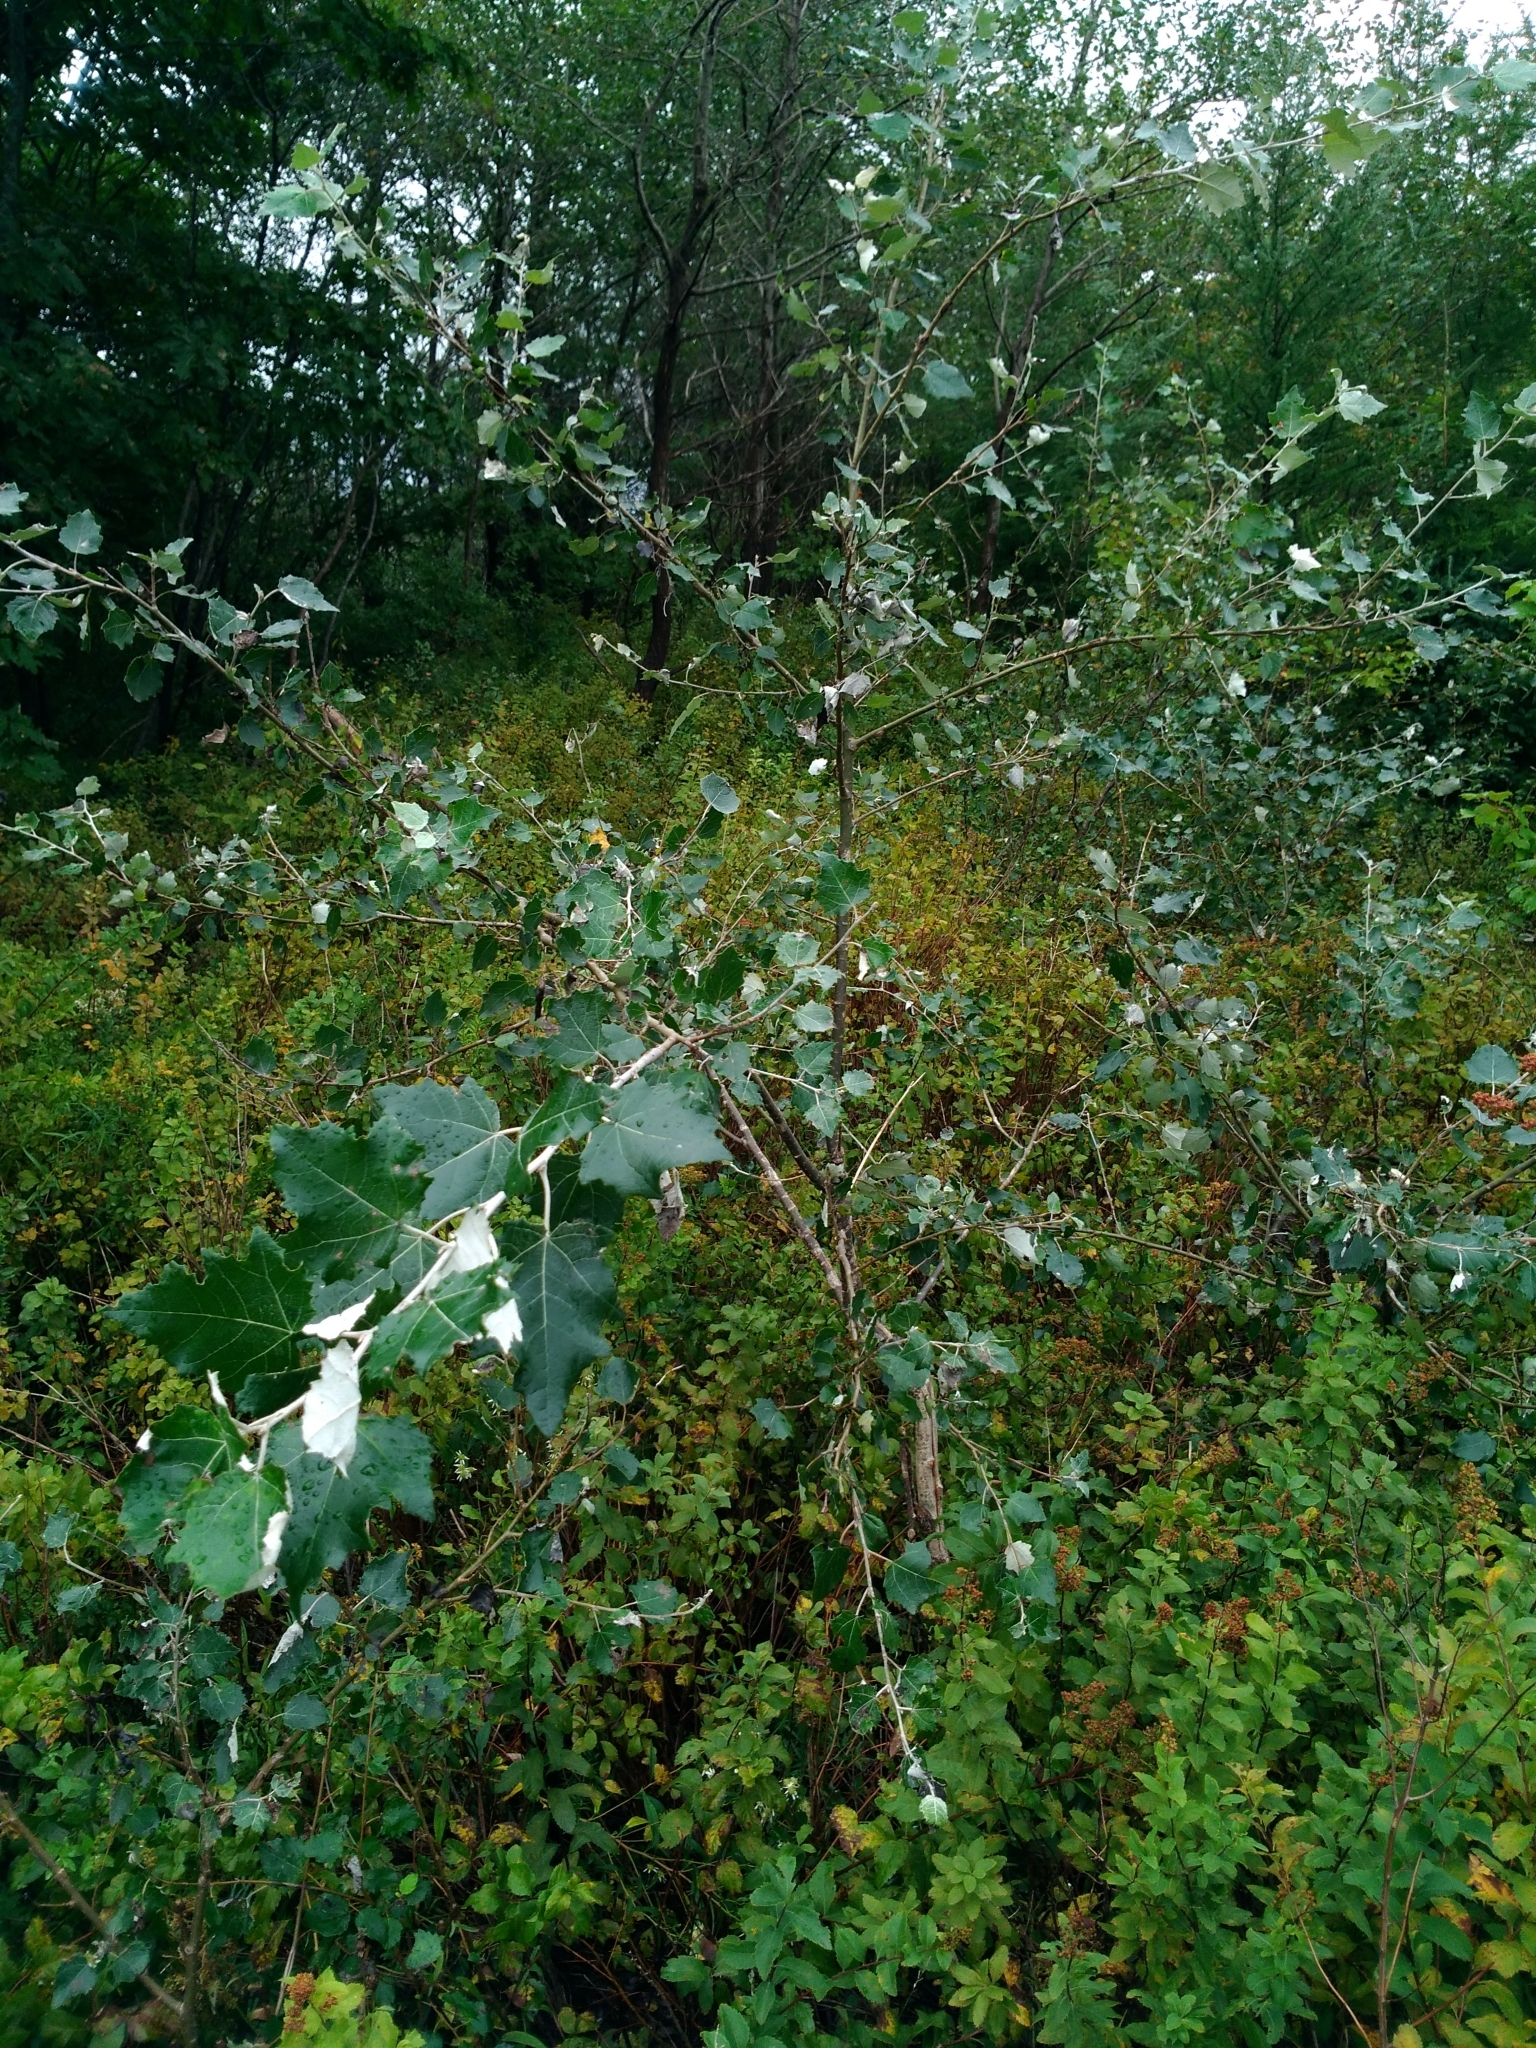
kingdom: Plantae
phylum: Tracheophyta
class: Magnoliopsida
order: Malpighiales
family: Salicaceae
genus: Populus
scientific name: Populus alba
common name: White poplar
